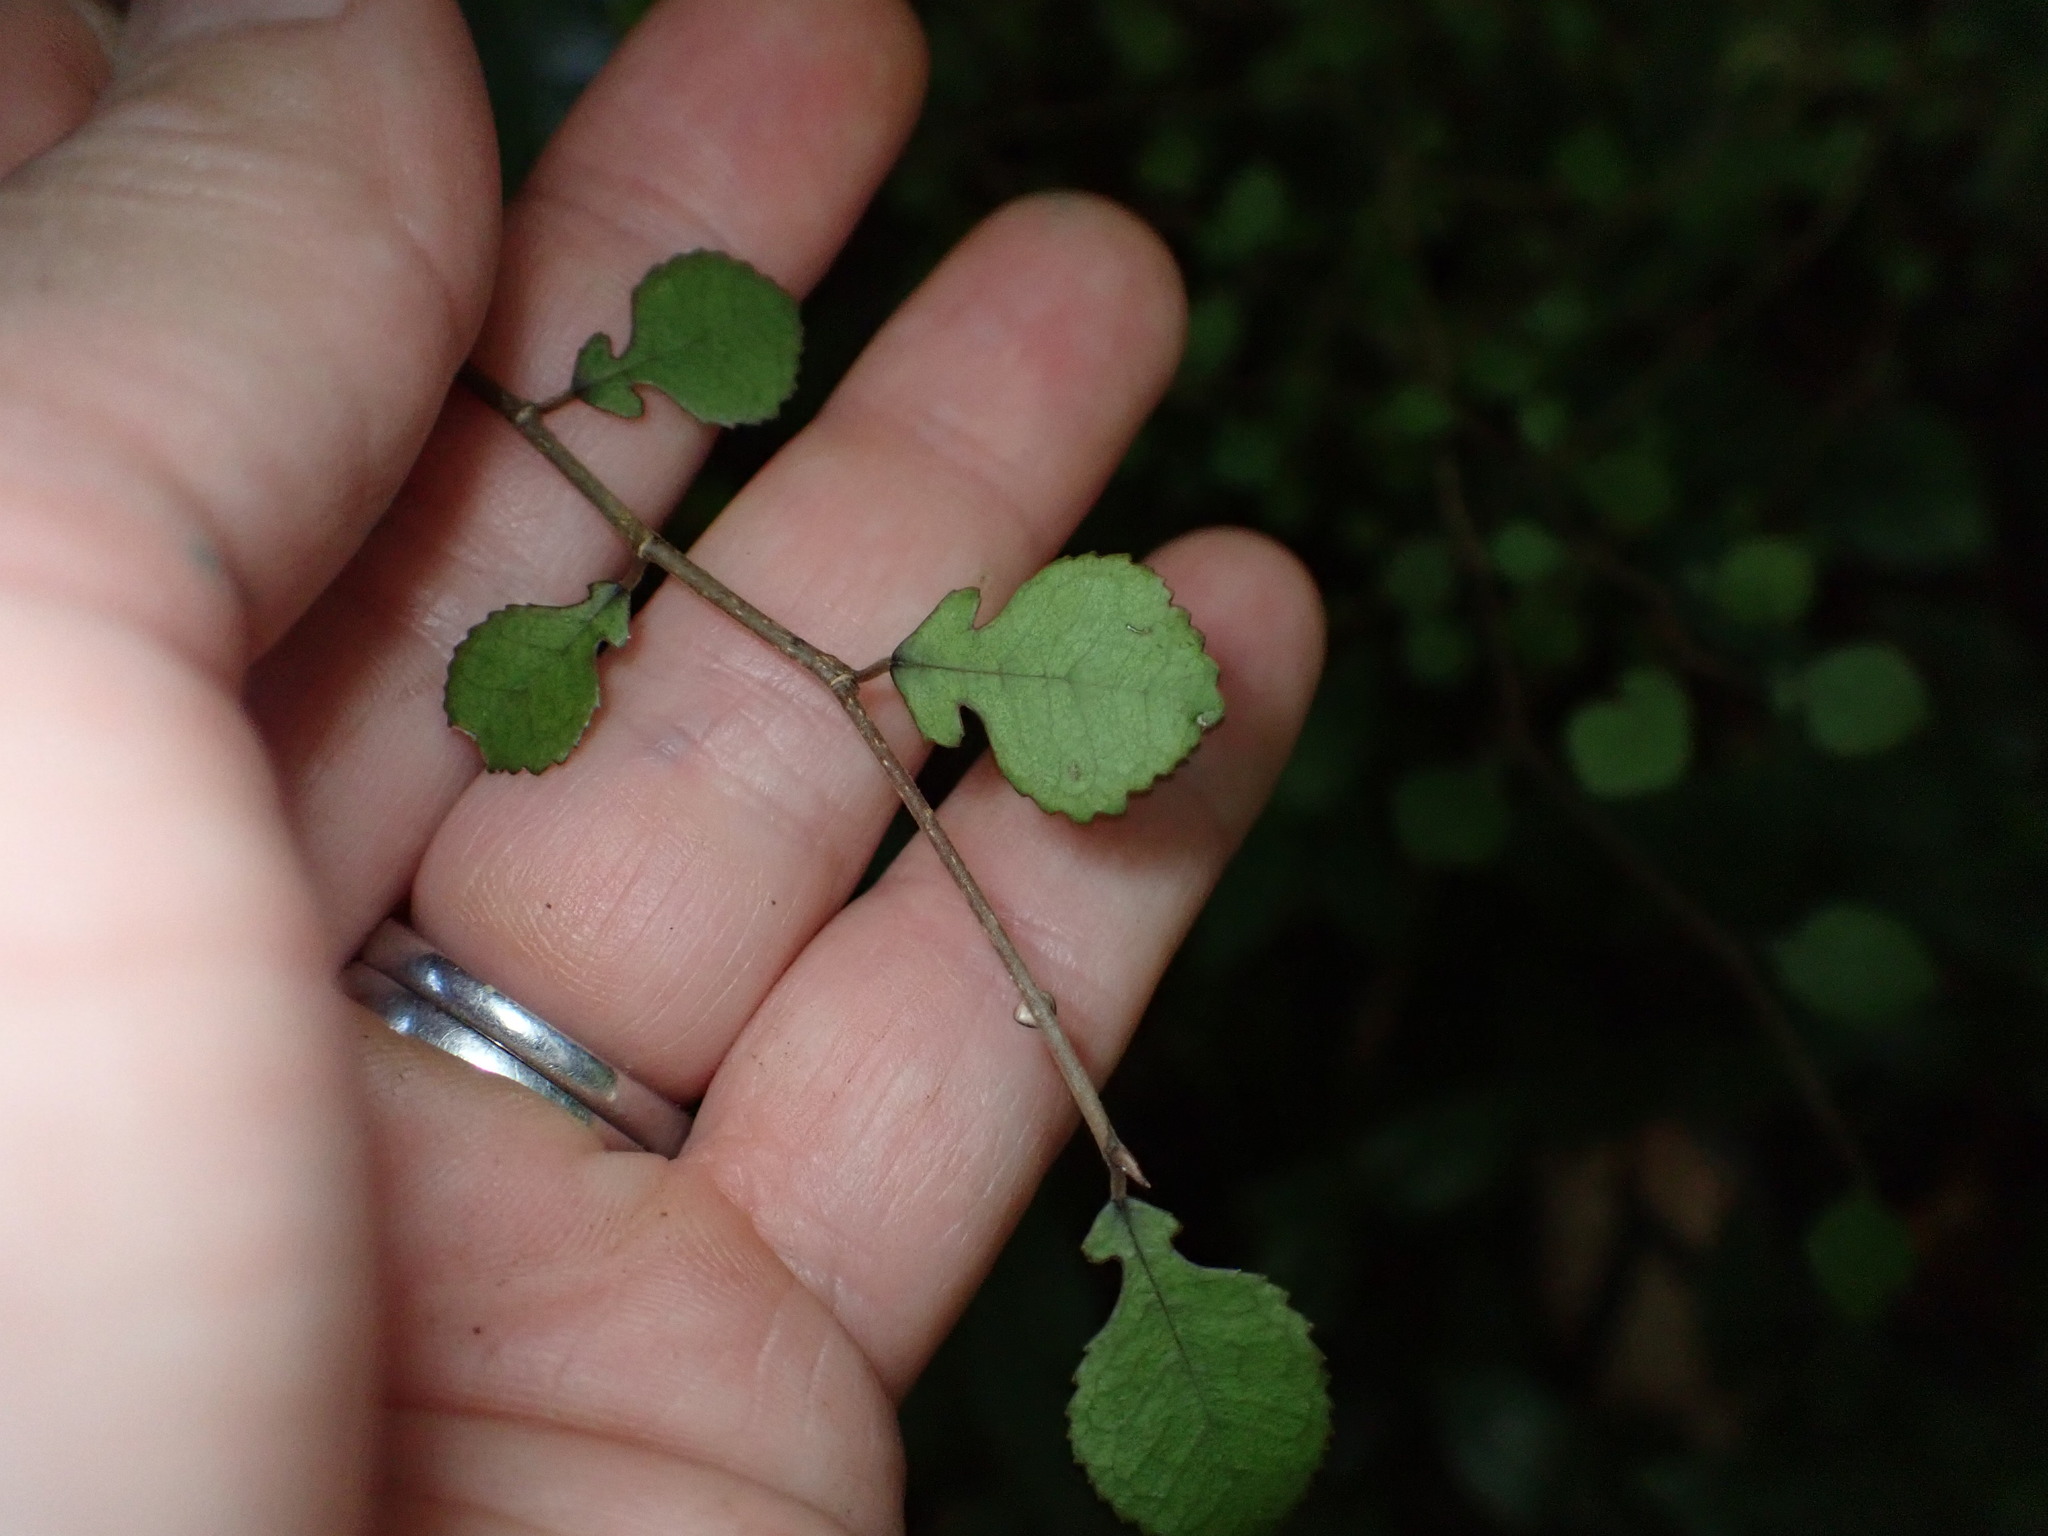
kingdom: Plantae
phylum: Tracheophyta
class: Magnoliopsida
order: Rosales
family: Moraceae
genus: Paratrophis
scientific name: Paratrophis microphylla
